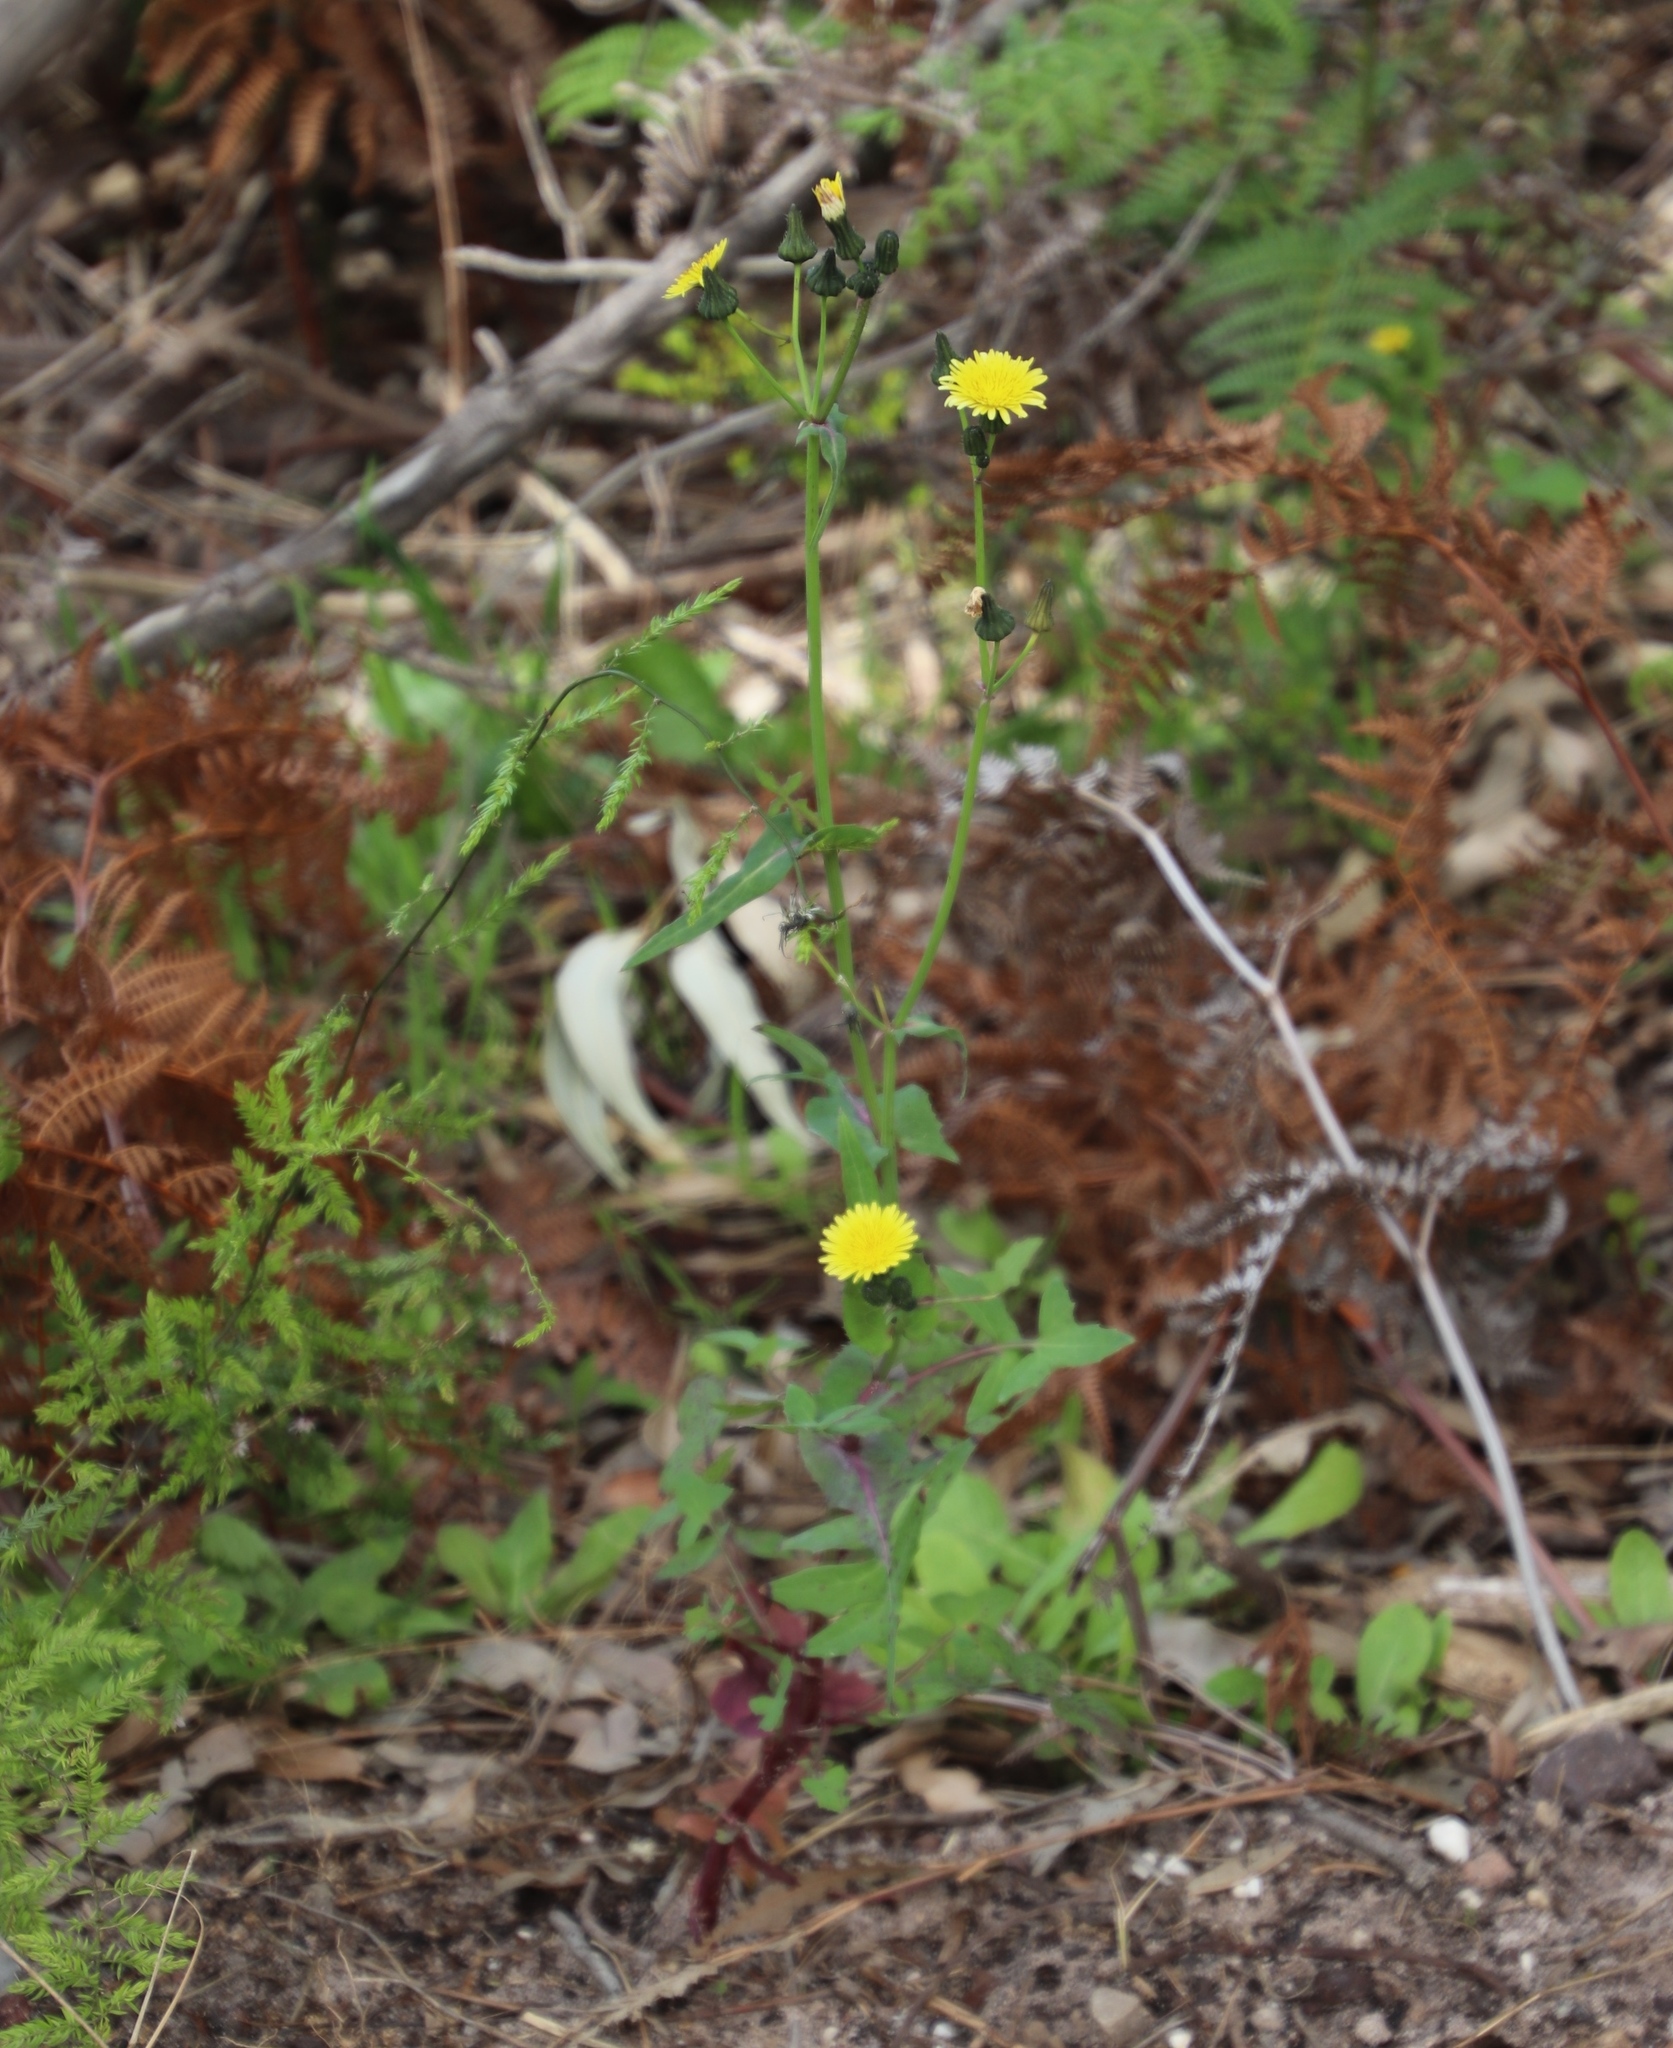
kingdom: Plantae
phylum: Tracheophyta
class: Magnoliopsida
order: Asterales
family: Asteraceae
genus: Sonchus
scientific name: Sonchus oleraceus
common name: Common sowthistle
